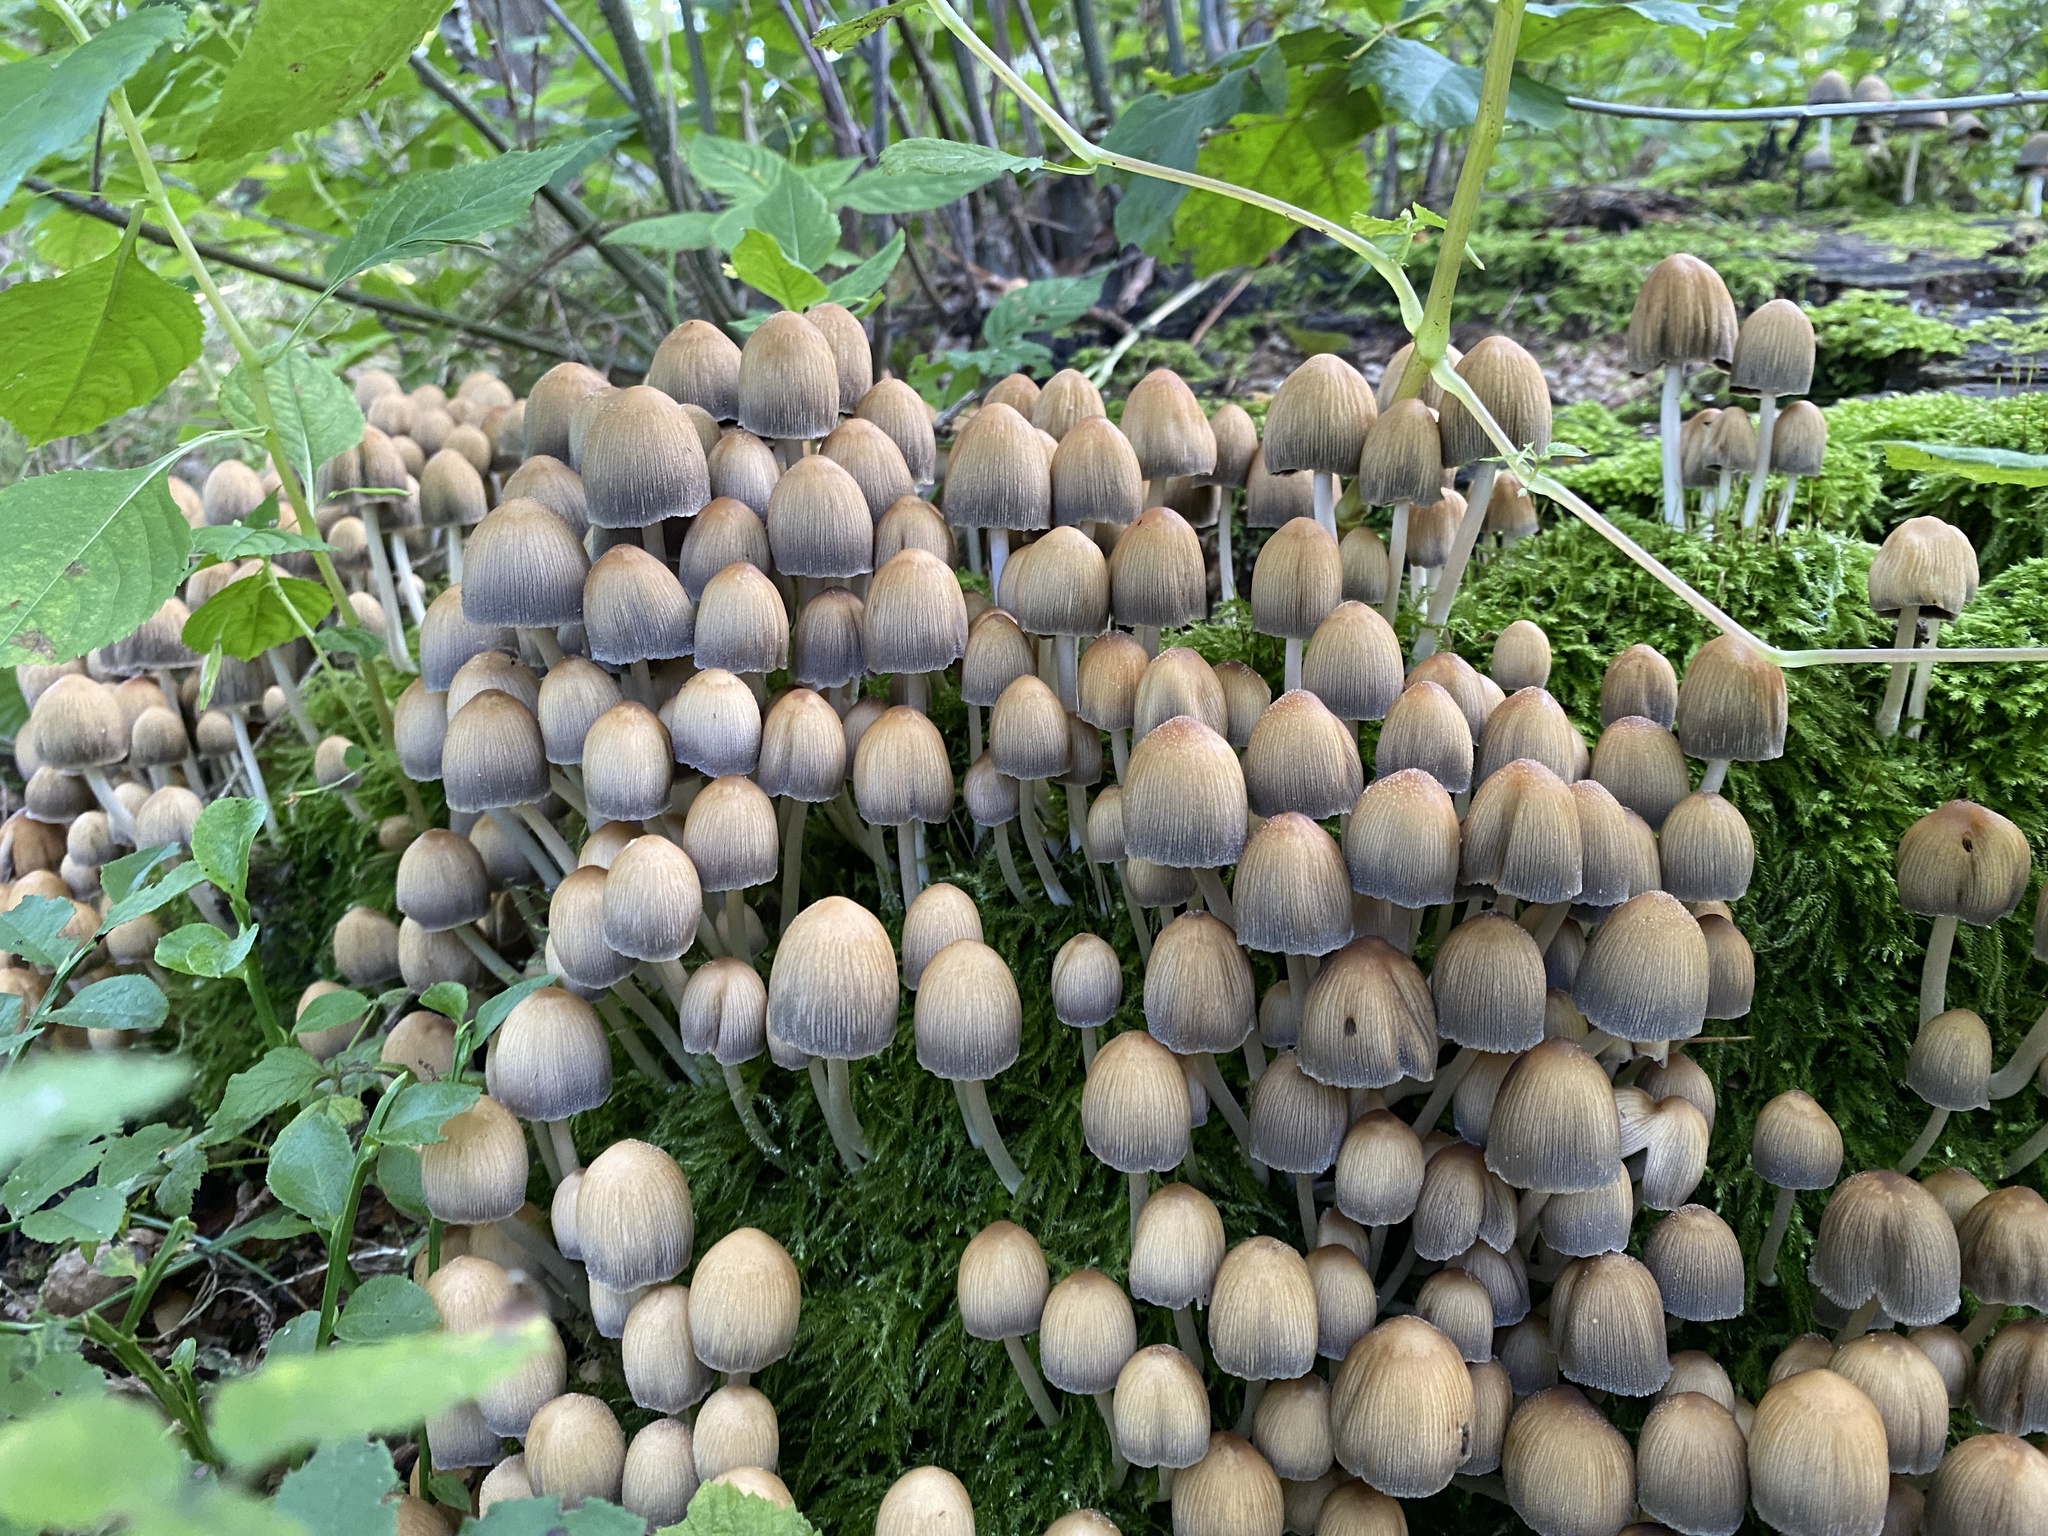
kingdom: Fungi
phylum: Basidiomycota
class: Agaricomycetes
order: Agaricales
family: Psathyrellaceae
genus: Coprinellus
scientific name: Coprinellus micaceus
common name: Glistening ink-cap
